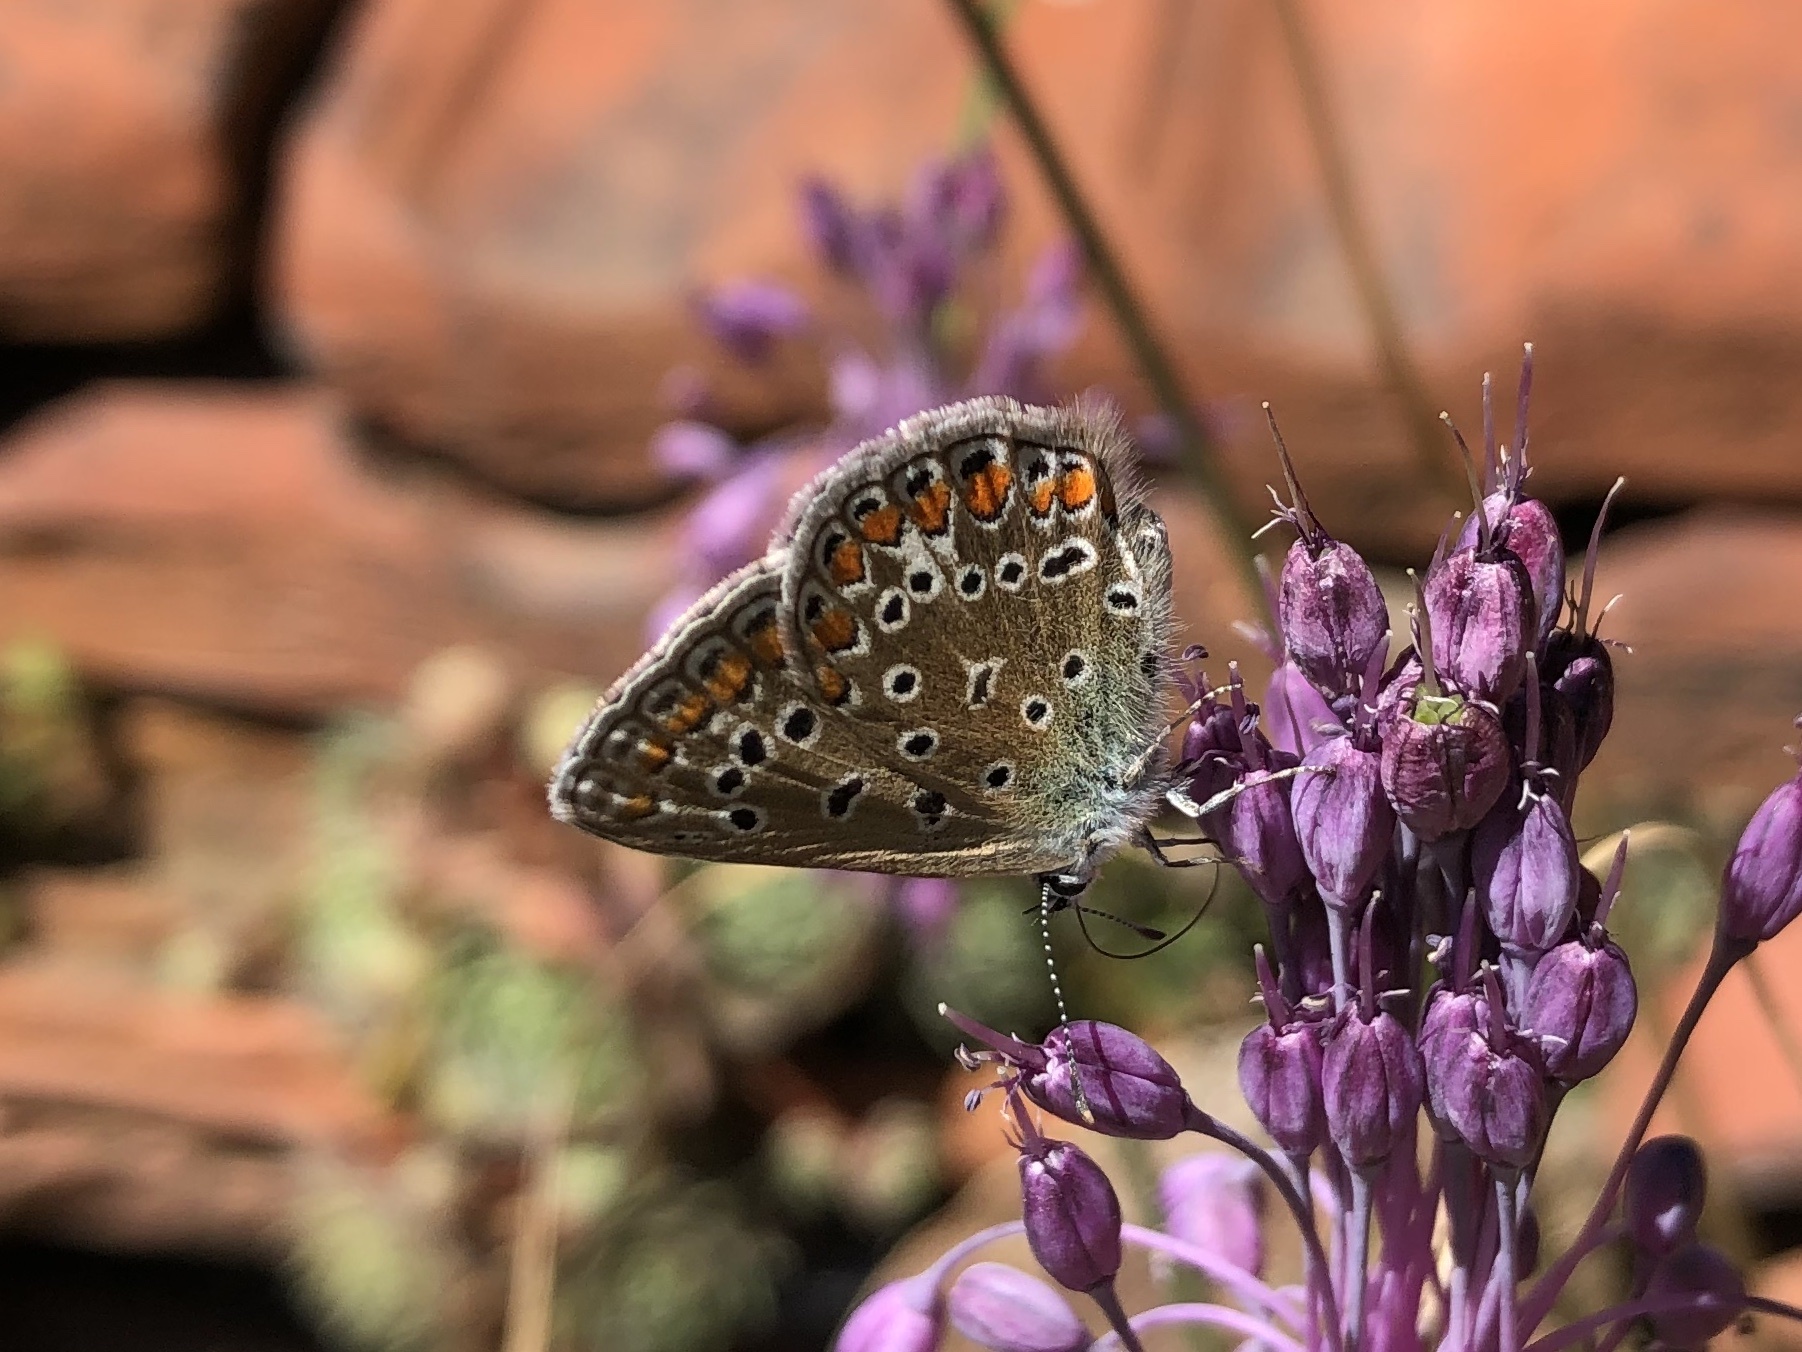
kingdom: Animalia
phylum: Arthropoda
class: Insecta
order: Lepidoptera
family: Lycaenidae
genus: Polyommatus
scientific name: Polyommatus icarus
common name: Common blue
